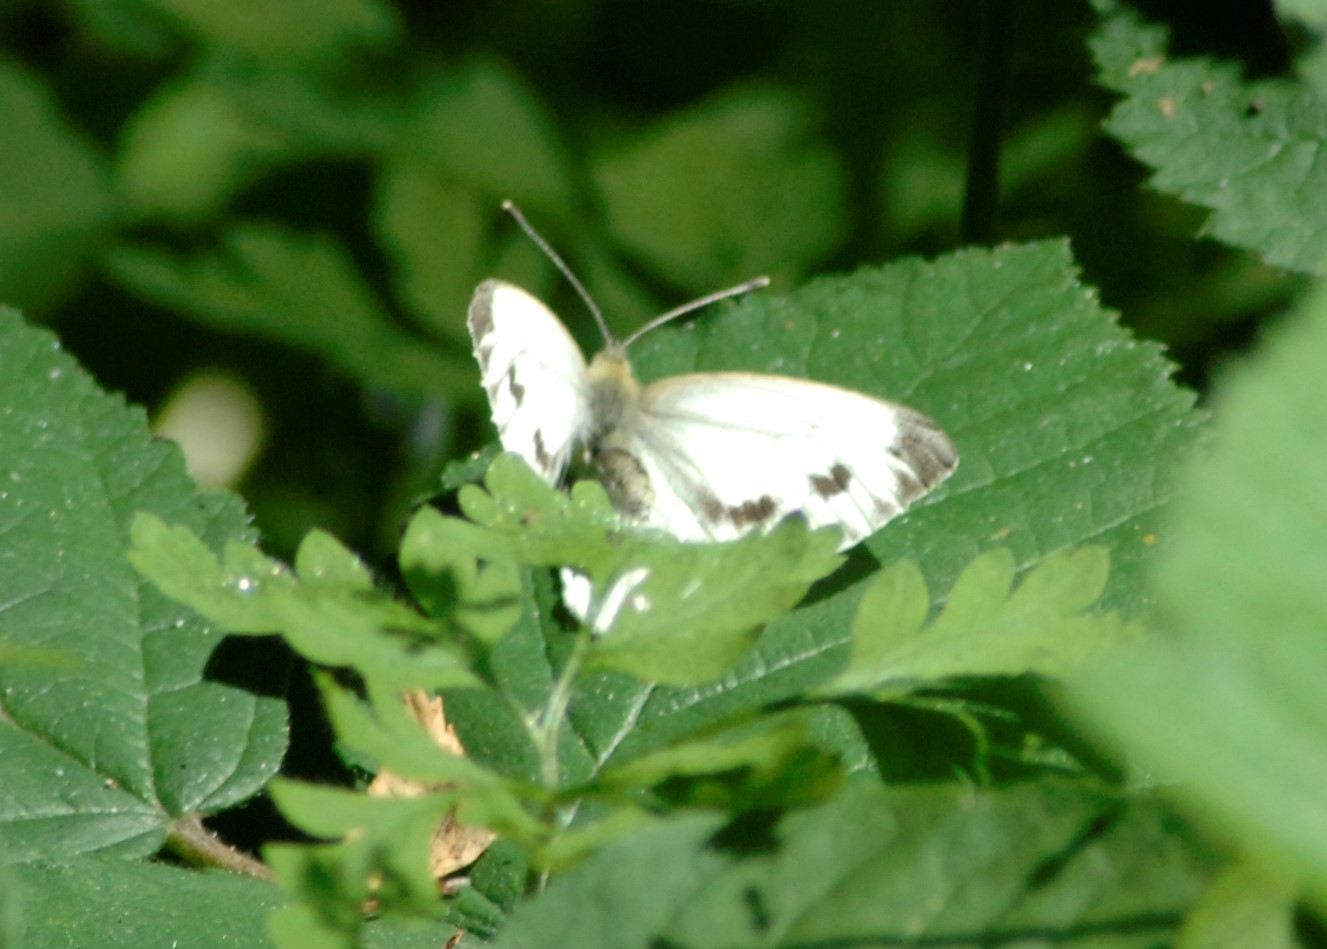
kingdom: Animalia
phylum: Arthropoda
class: Insecta
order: Lepidoptera
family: Pieridae
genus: Pieris
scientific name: Pieris napi
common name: Green-veined white
